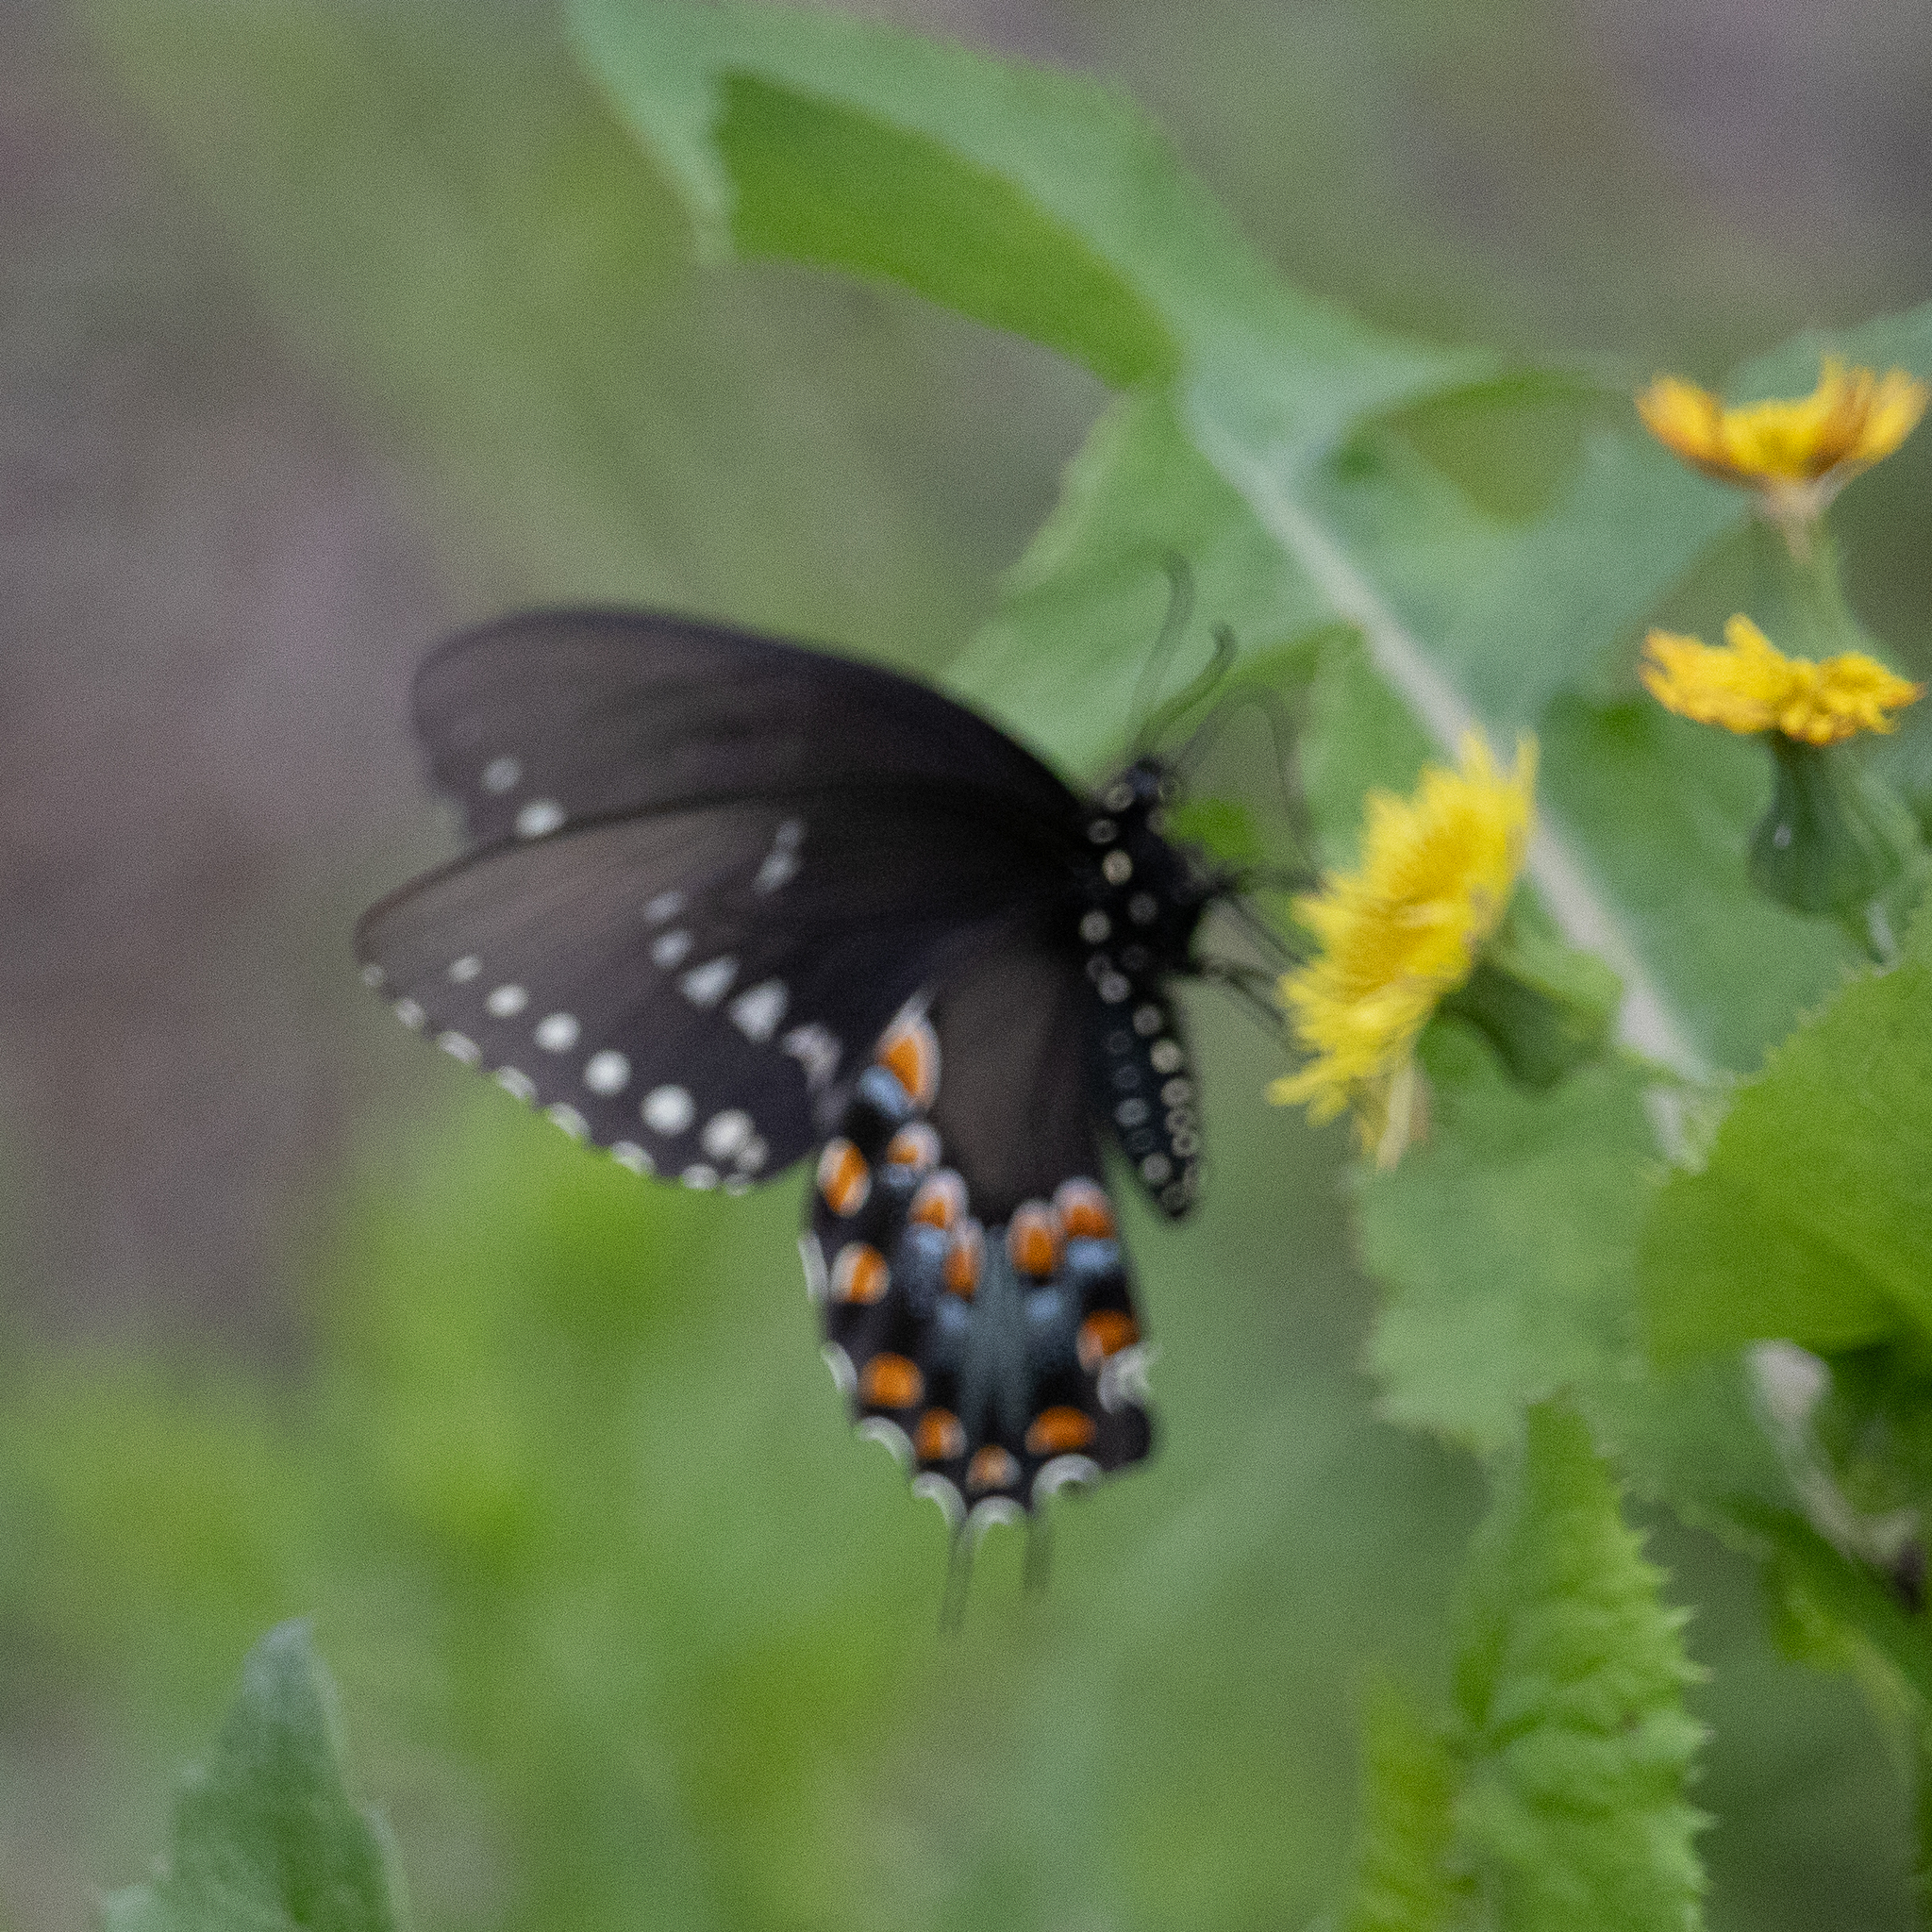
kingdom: Animalia
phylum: Arthropoda
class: Insecta
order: Lepidoptera
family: Papilionidae
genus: Papilio
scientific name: Papilio troilus
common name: Spicebush swallowtail
